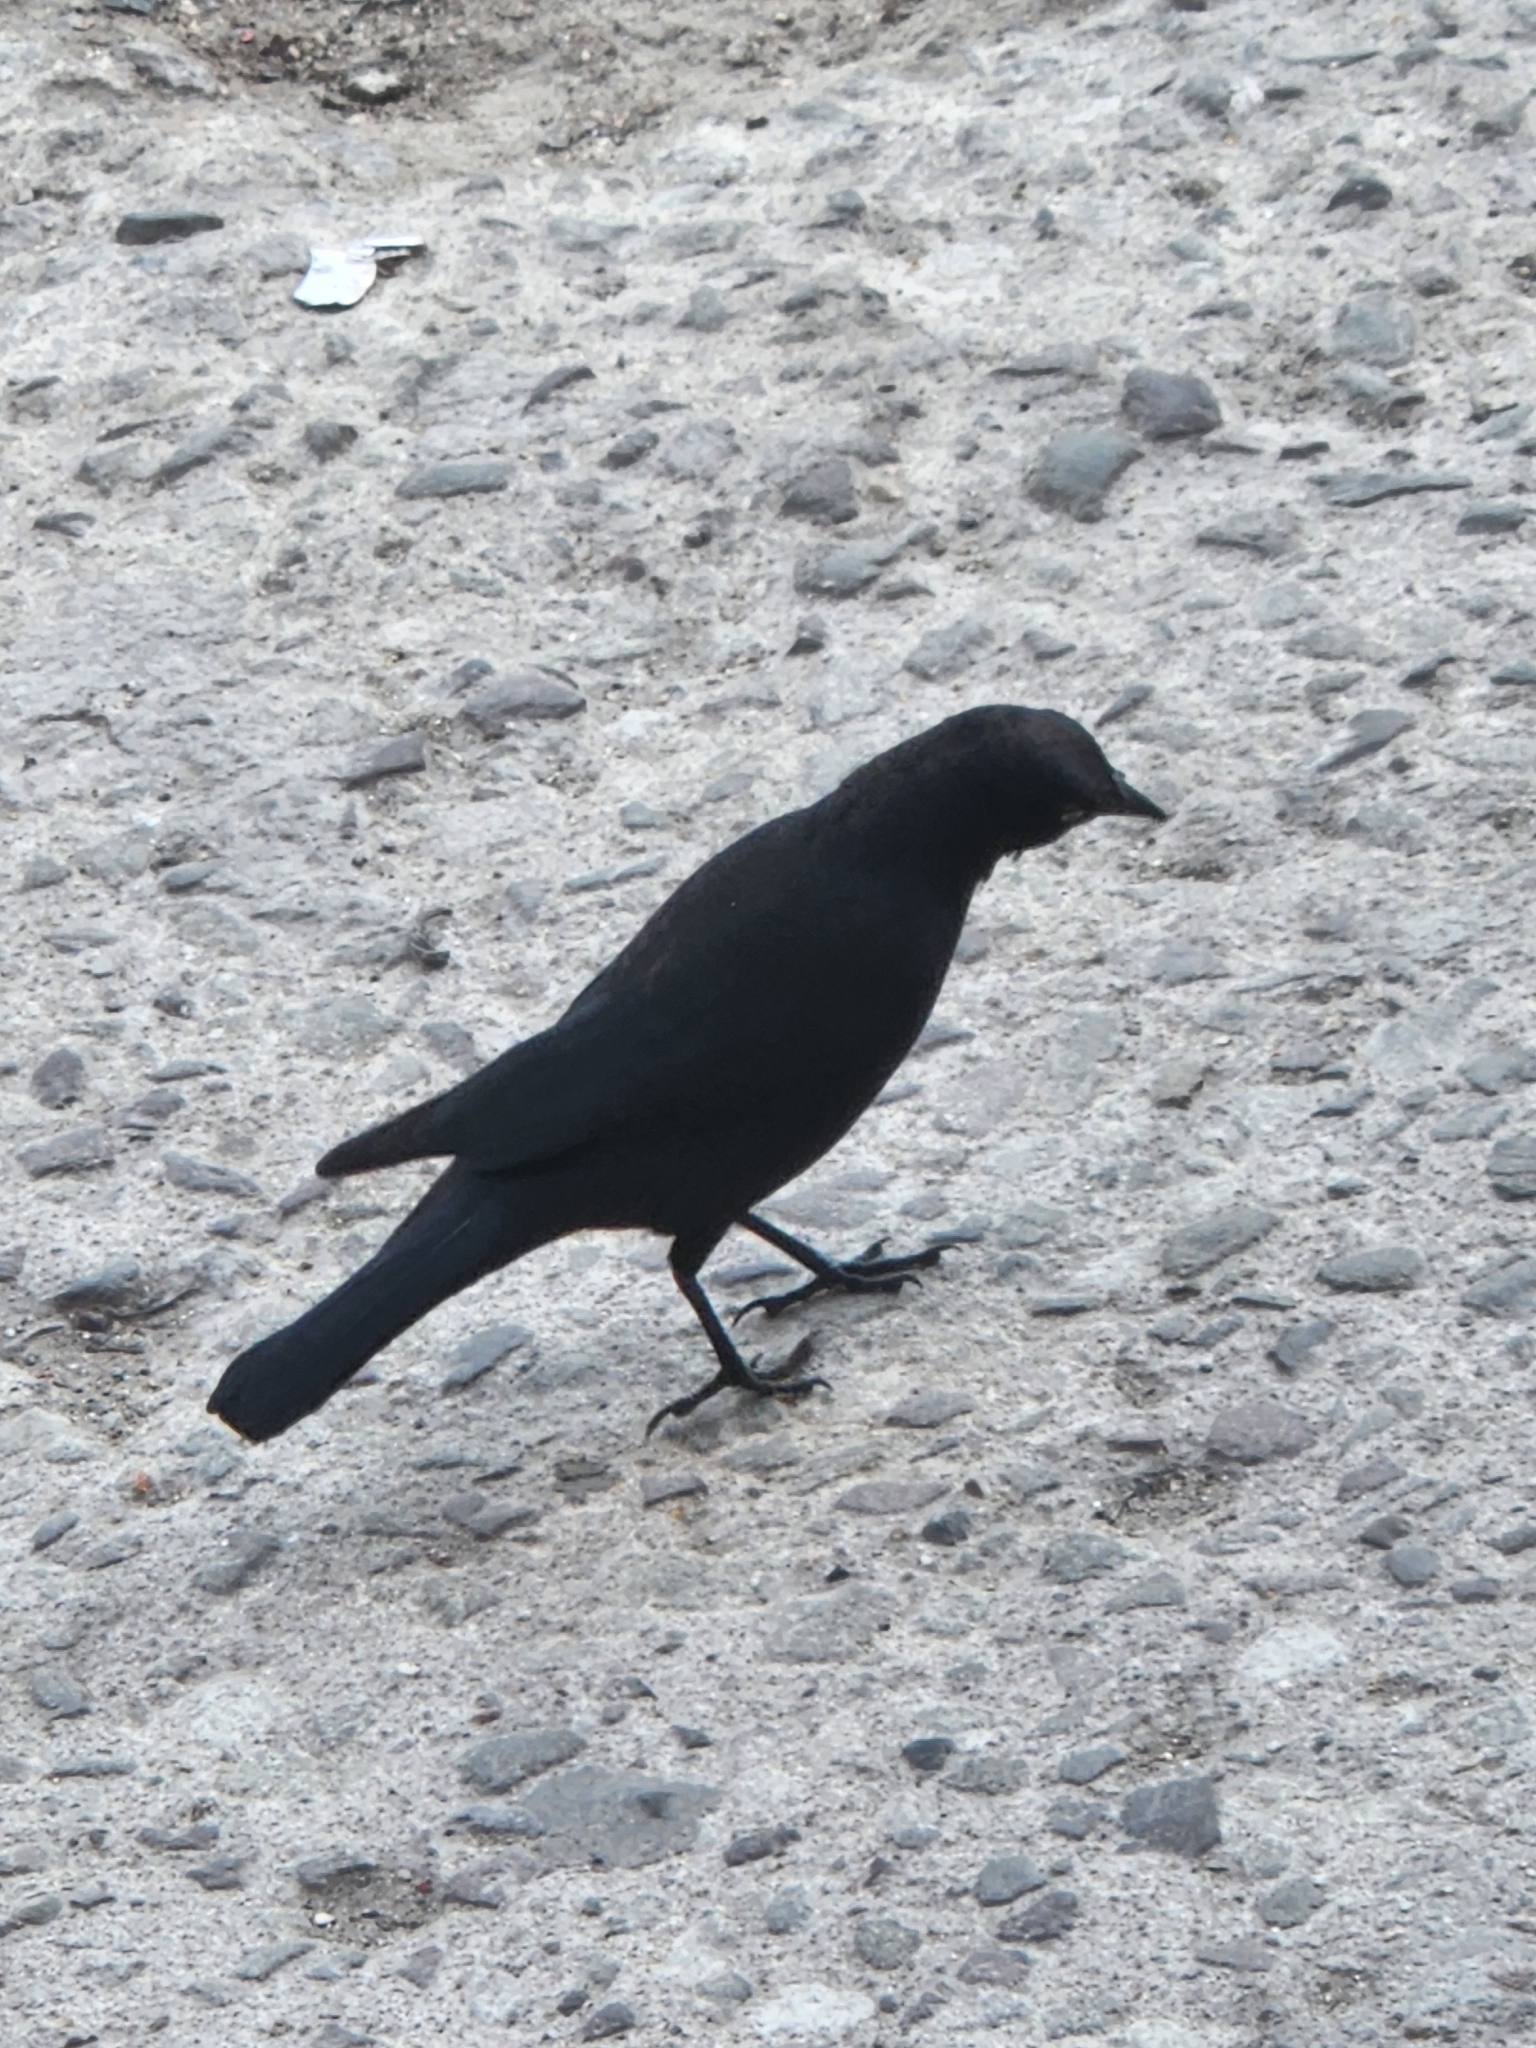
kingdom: Animalia
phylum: Chordata
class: Aves
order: Passeriformes
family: Icteridae
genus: Euphagus
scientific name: Euphagus cyanocephalus
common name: Brewer's blackbird
